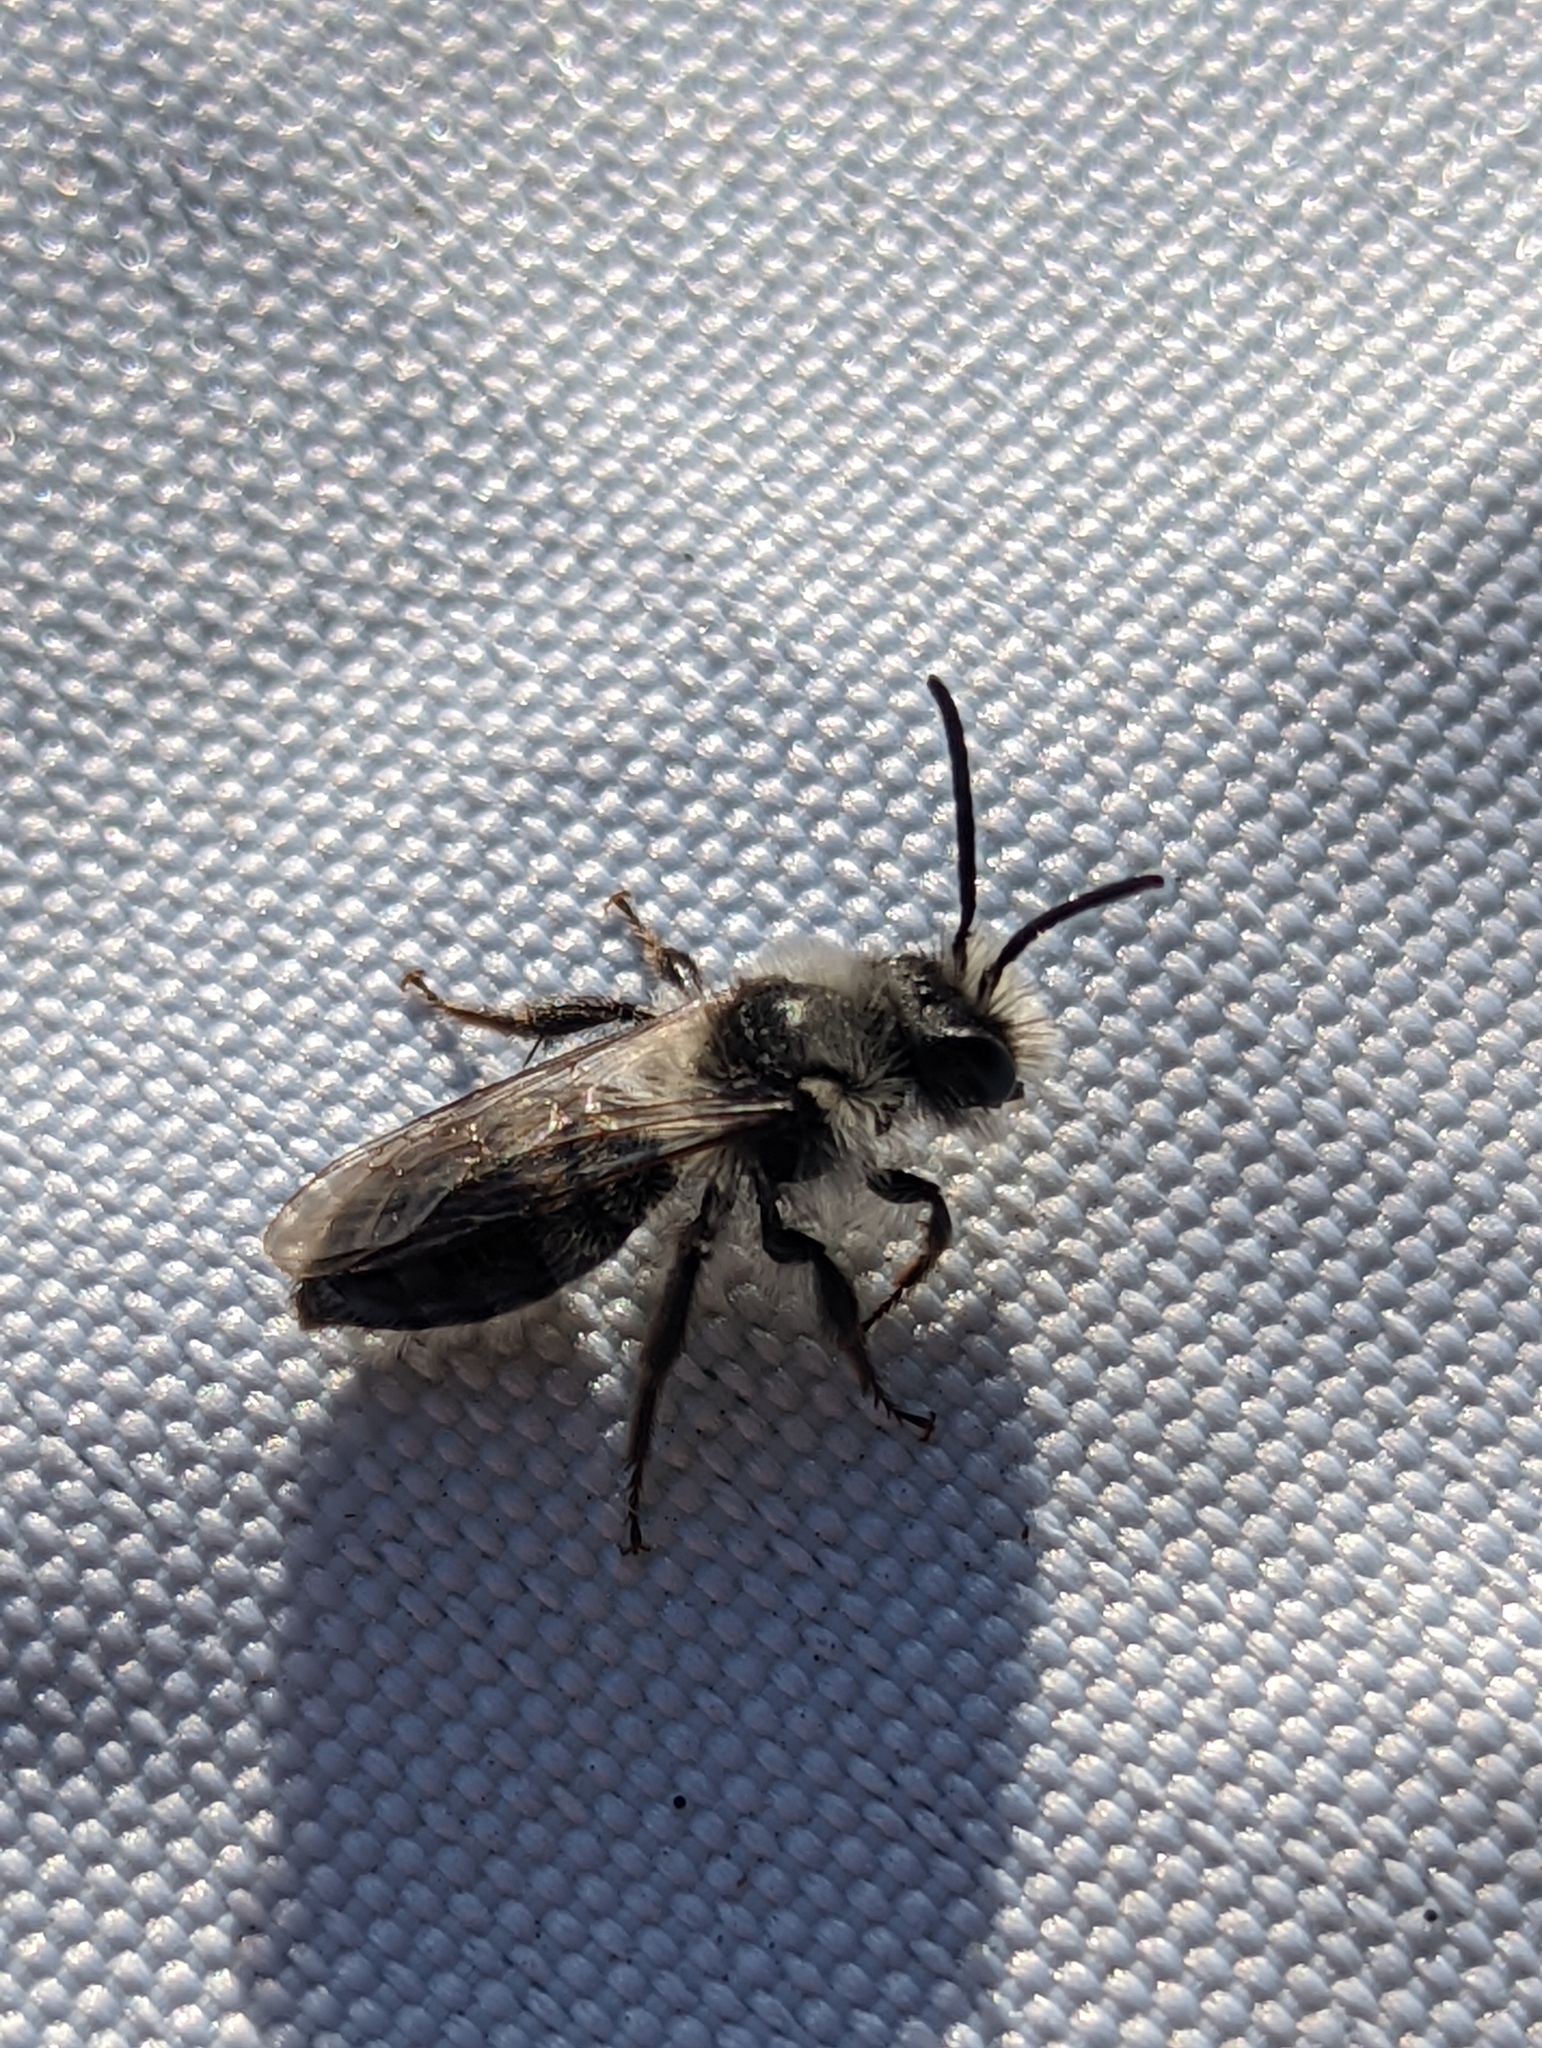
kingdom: Animalia
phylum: Arthropoda
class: Insecta
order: Hymenoptera
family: Andrenidae
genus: Andrena
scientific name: Andrena cineraria
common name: Ashy mining bee
